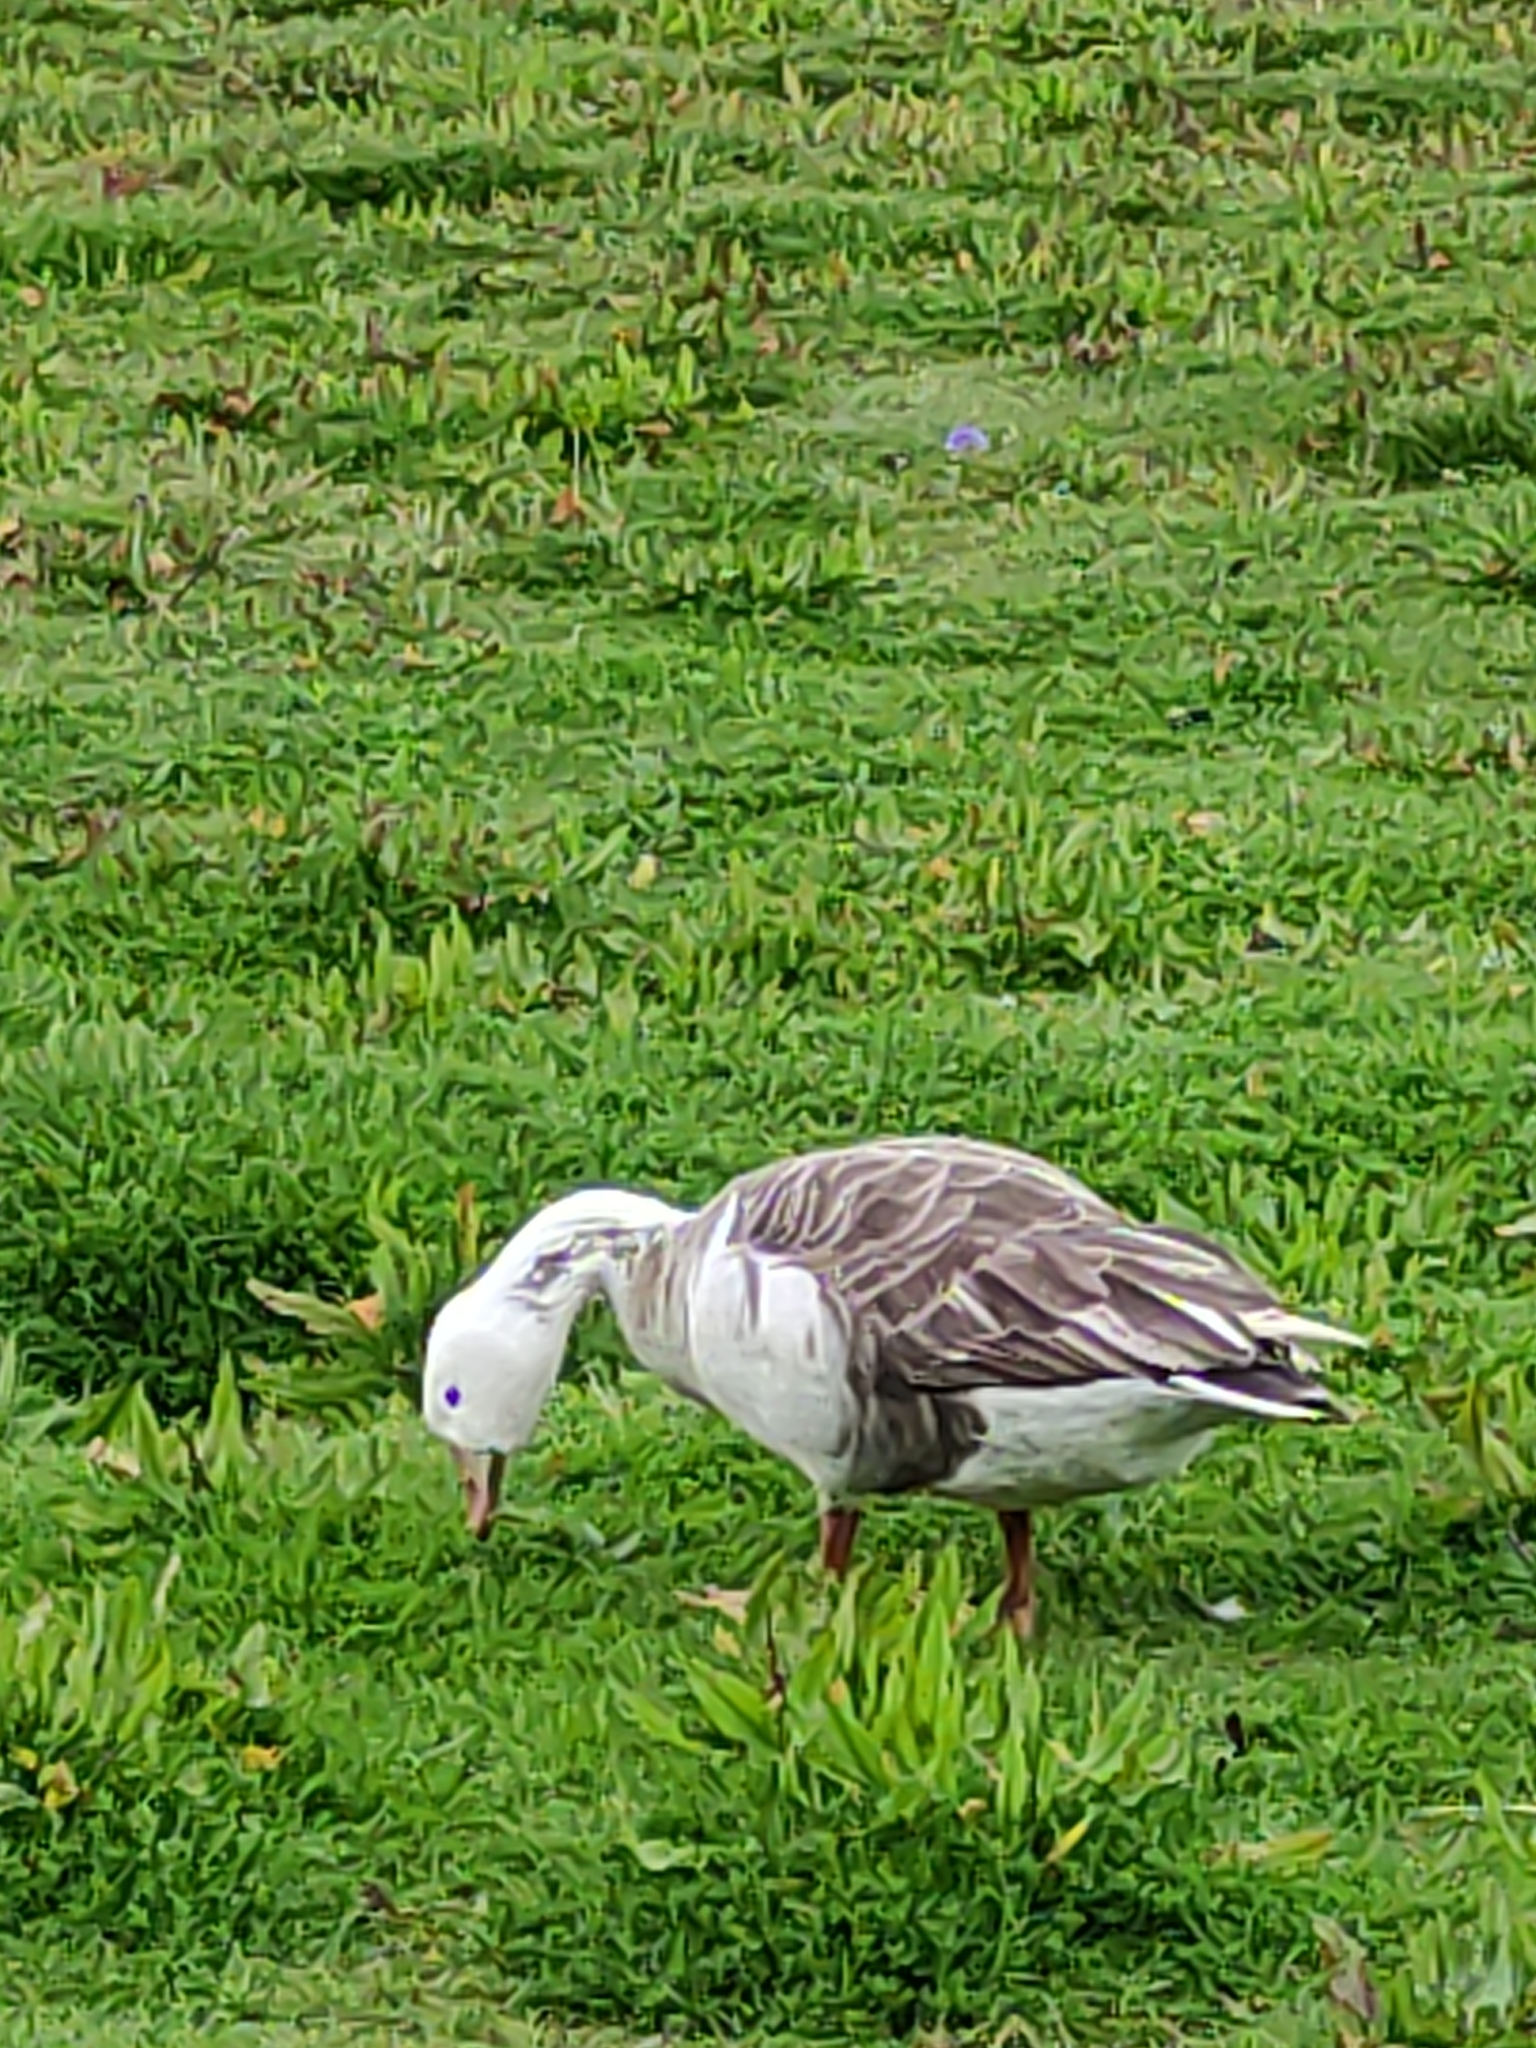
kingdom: Animalia
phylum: Chordata
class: Aves
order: Anseriformes
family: Anatidae
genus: Anser
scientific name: Anser anser
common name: Greylag goose
